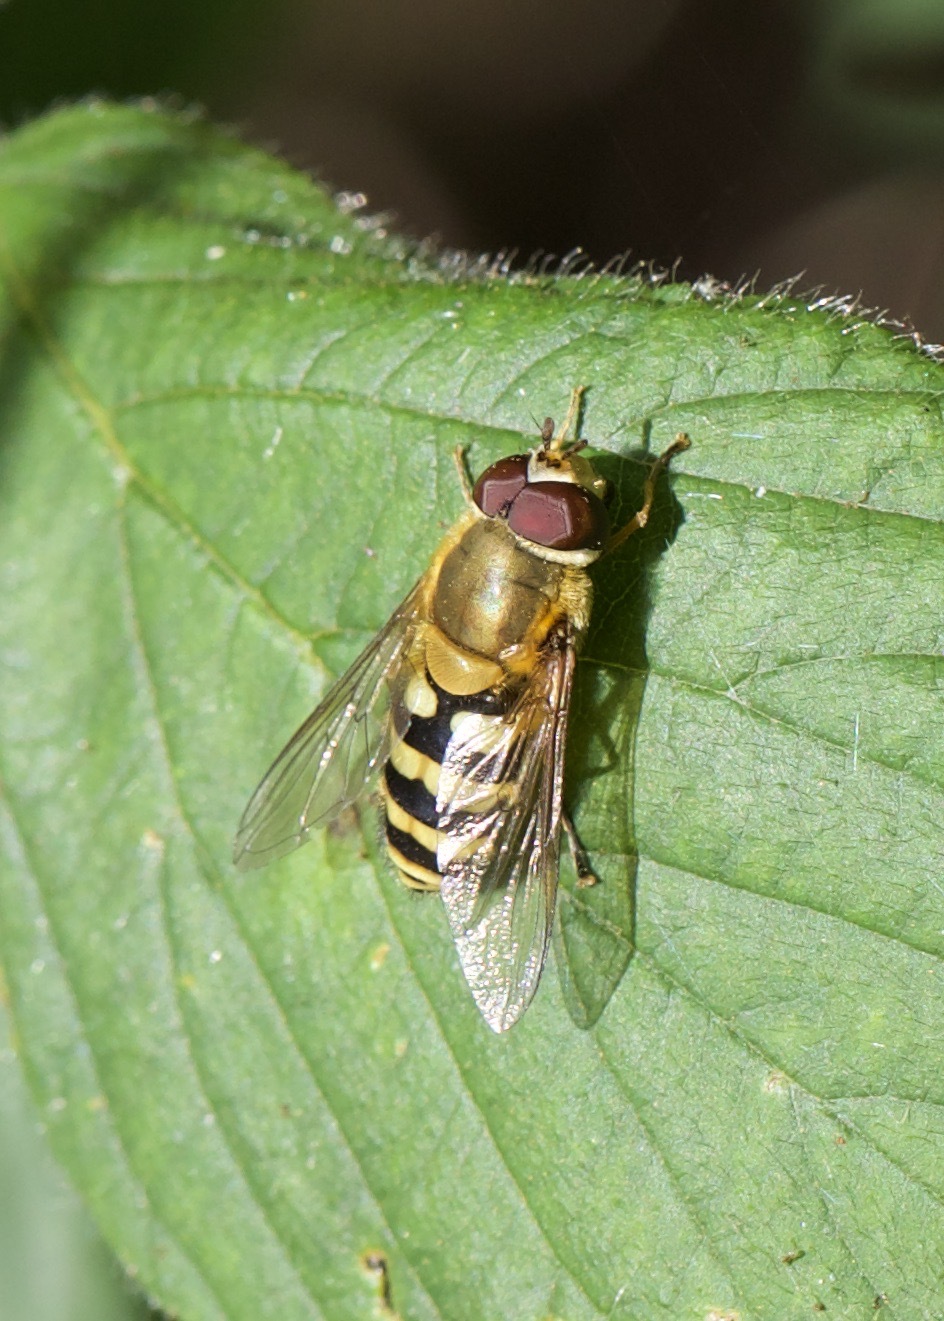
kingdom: Animalia
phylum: Arthropoda
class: Insecta
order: Diptera
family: Syrphidae
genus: Syrphus
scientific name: Syrphus
